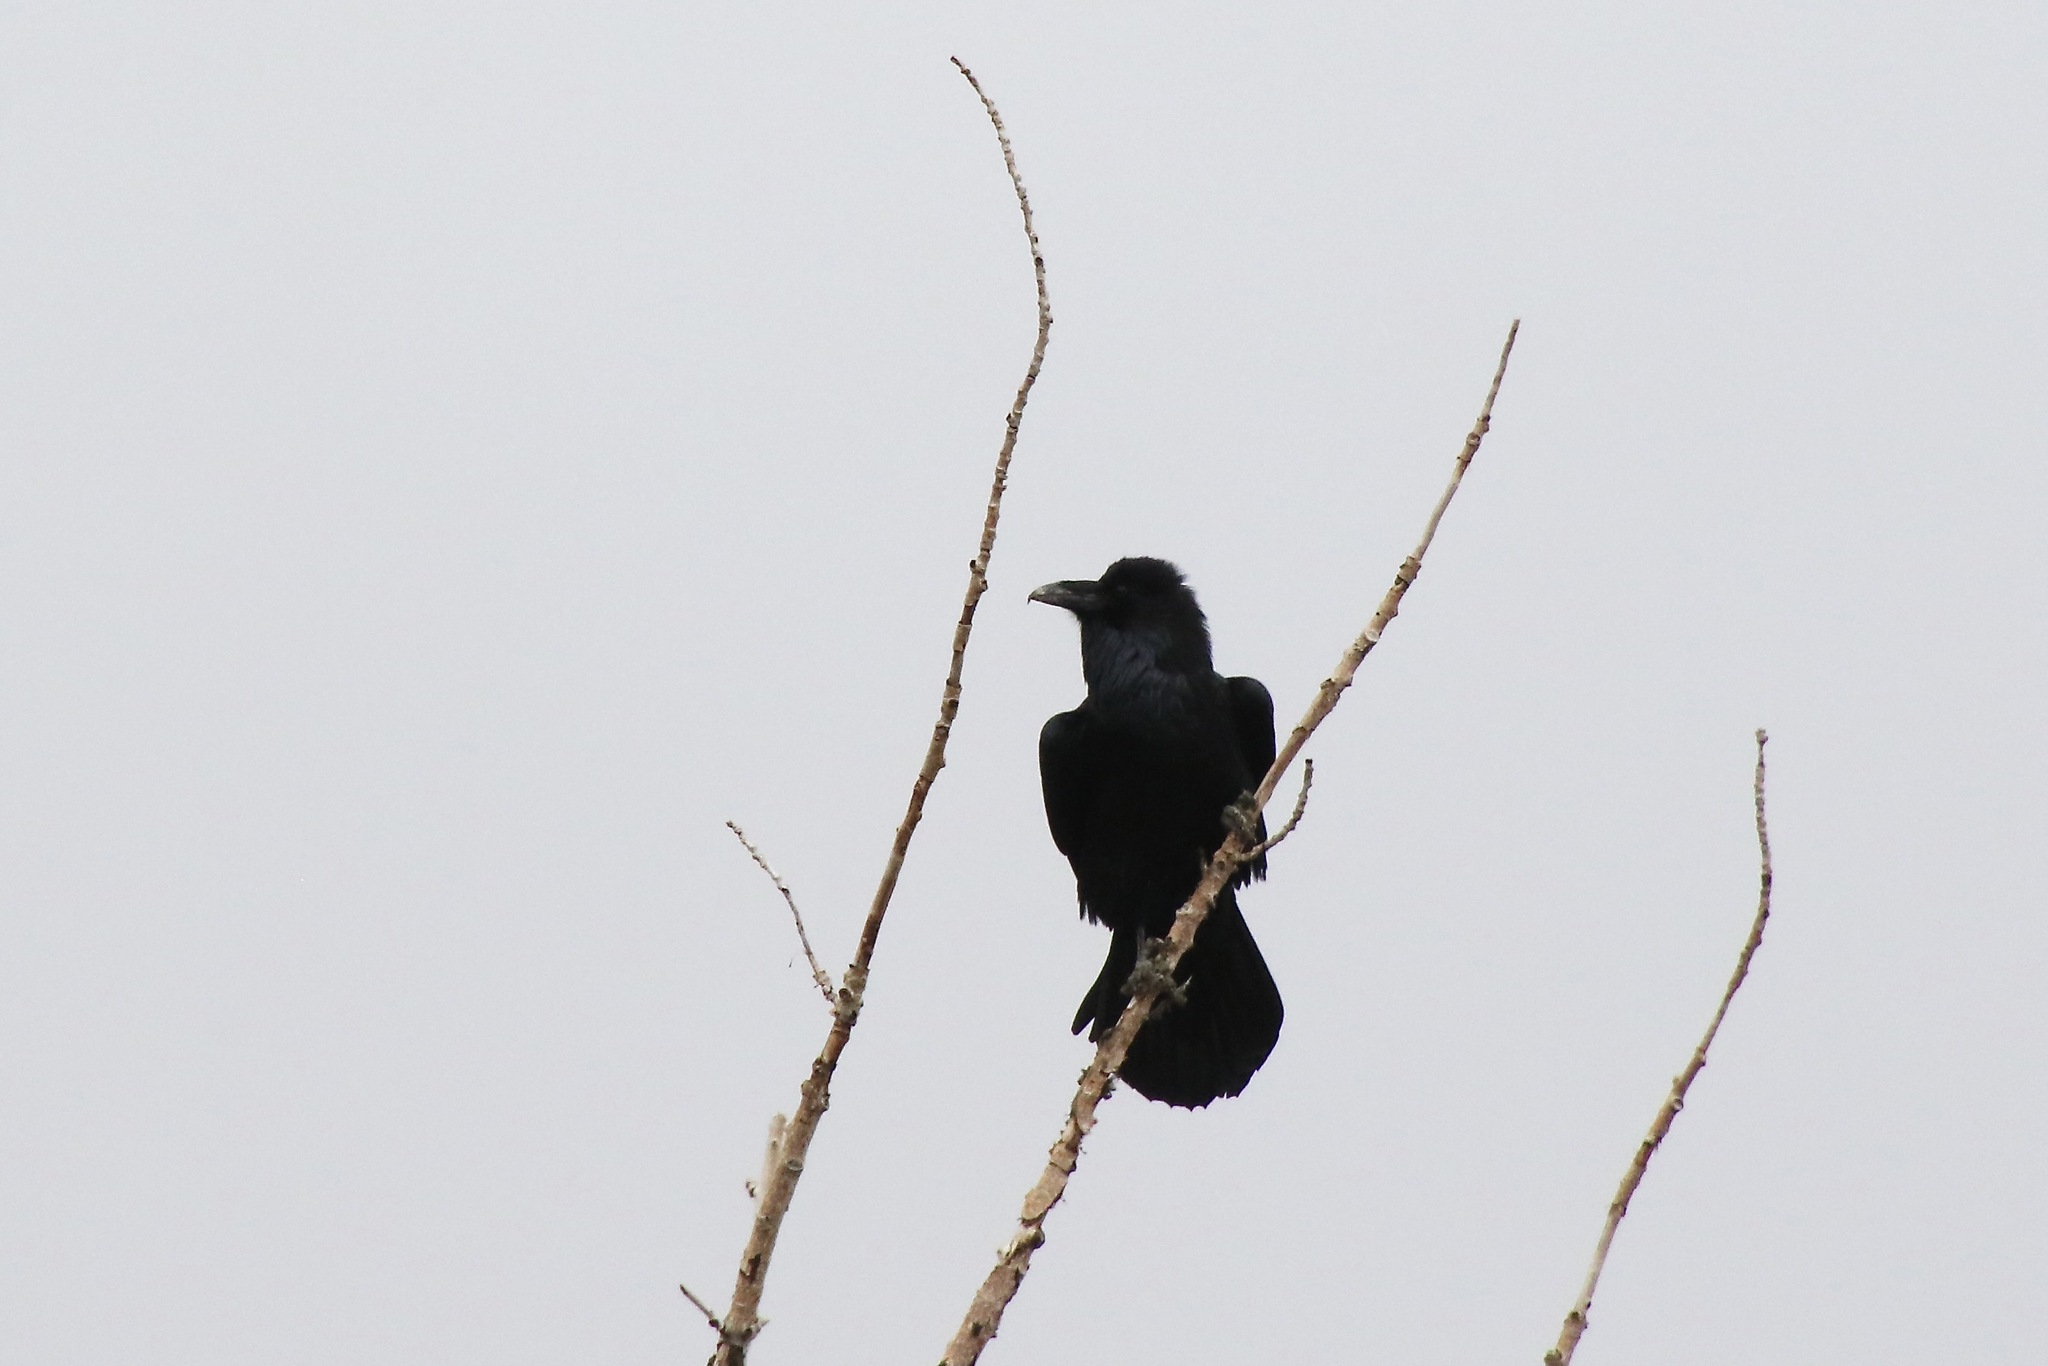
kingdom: Animalia
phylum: Chordata
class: Aves
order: Passeriformes
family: Corvidae
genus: Corvus
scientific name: Corvus corax
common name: Common raven
